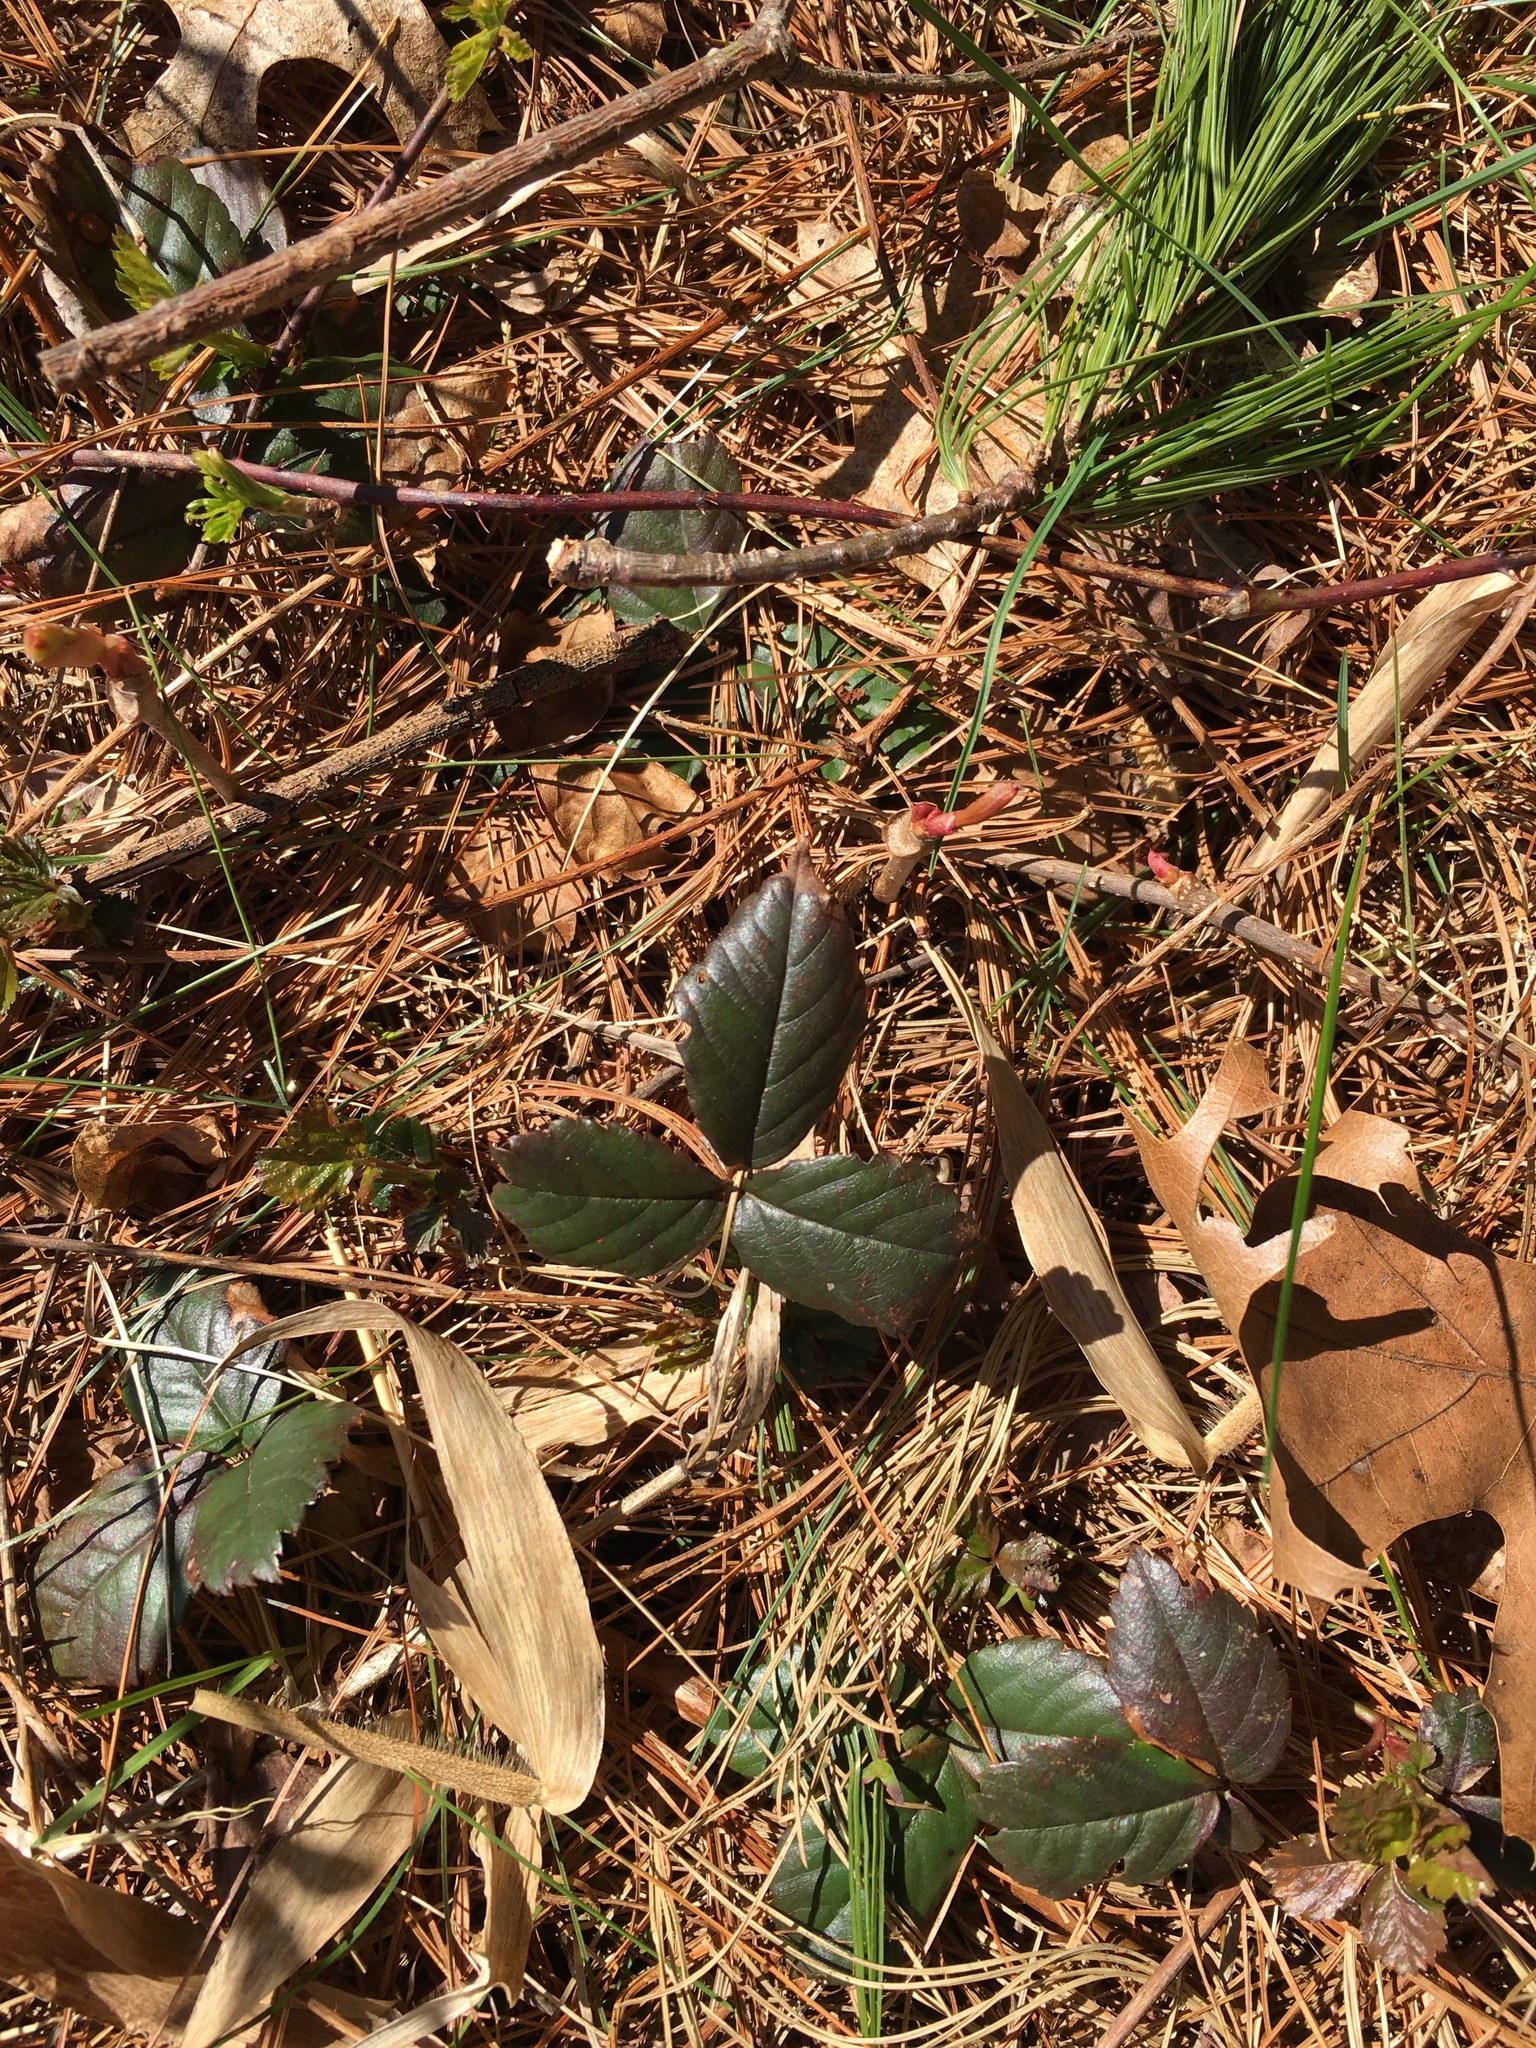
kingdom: Plantae
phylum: Tracheophyta
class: Magnoliopsida
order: Rosales
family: Rosaceae
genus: Rubus
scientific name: Rubus flagellaris
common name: American dewberry
